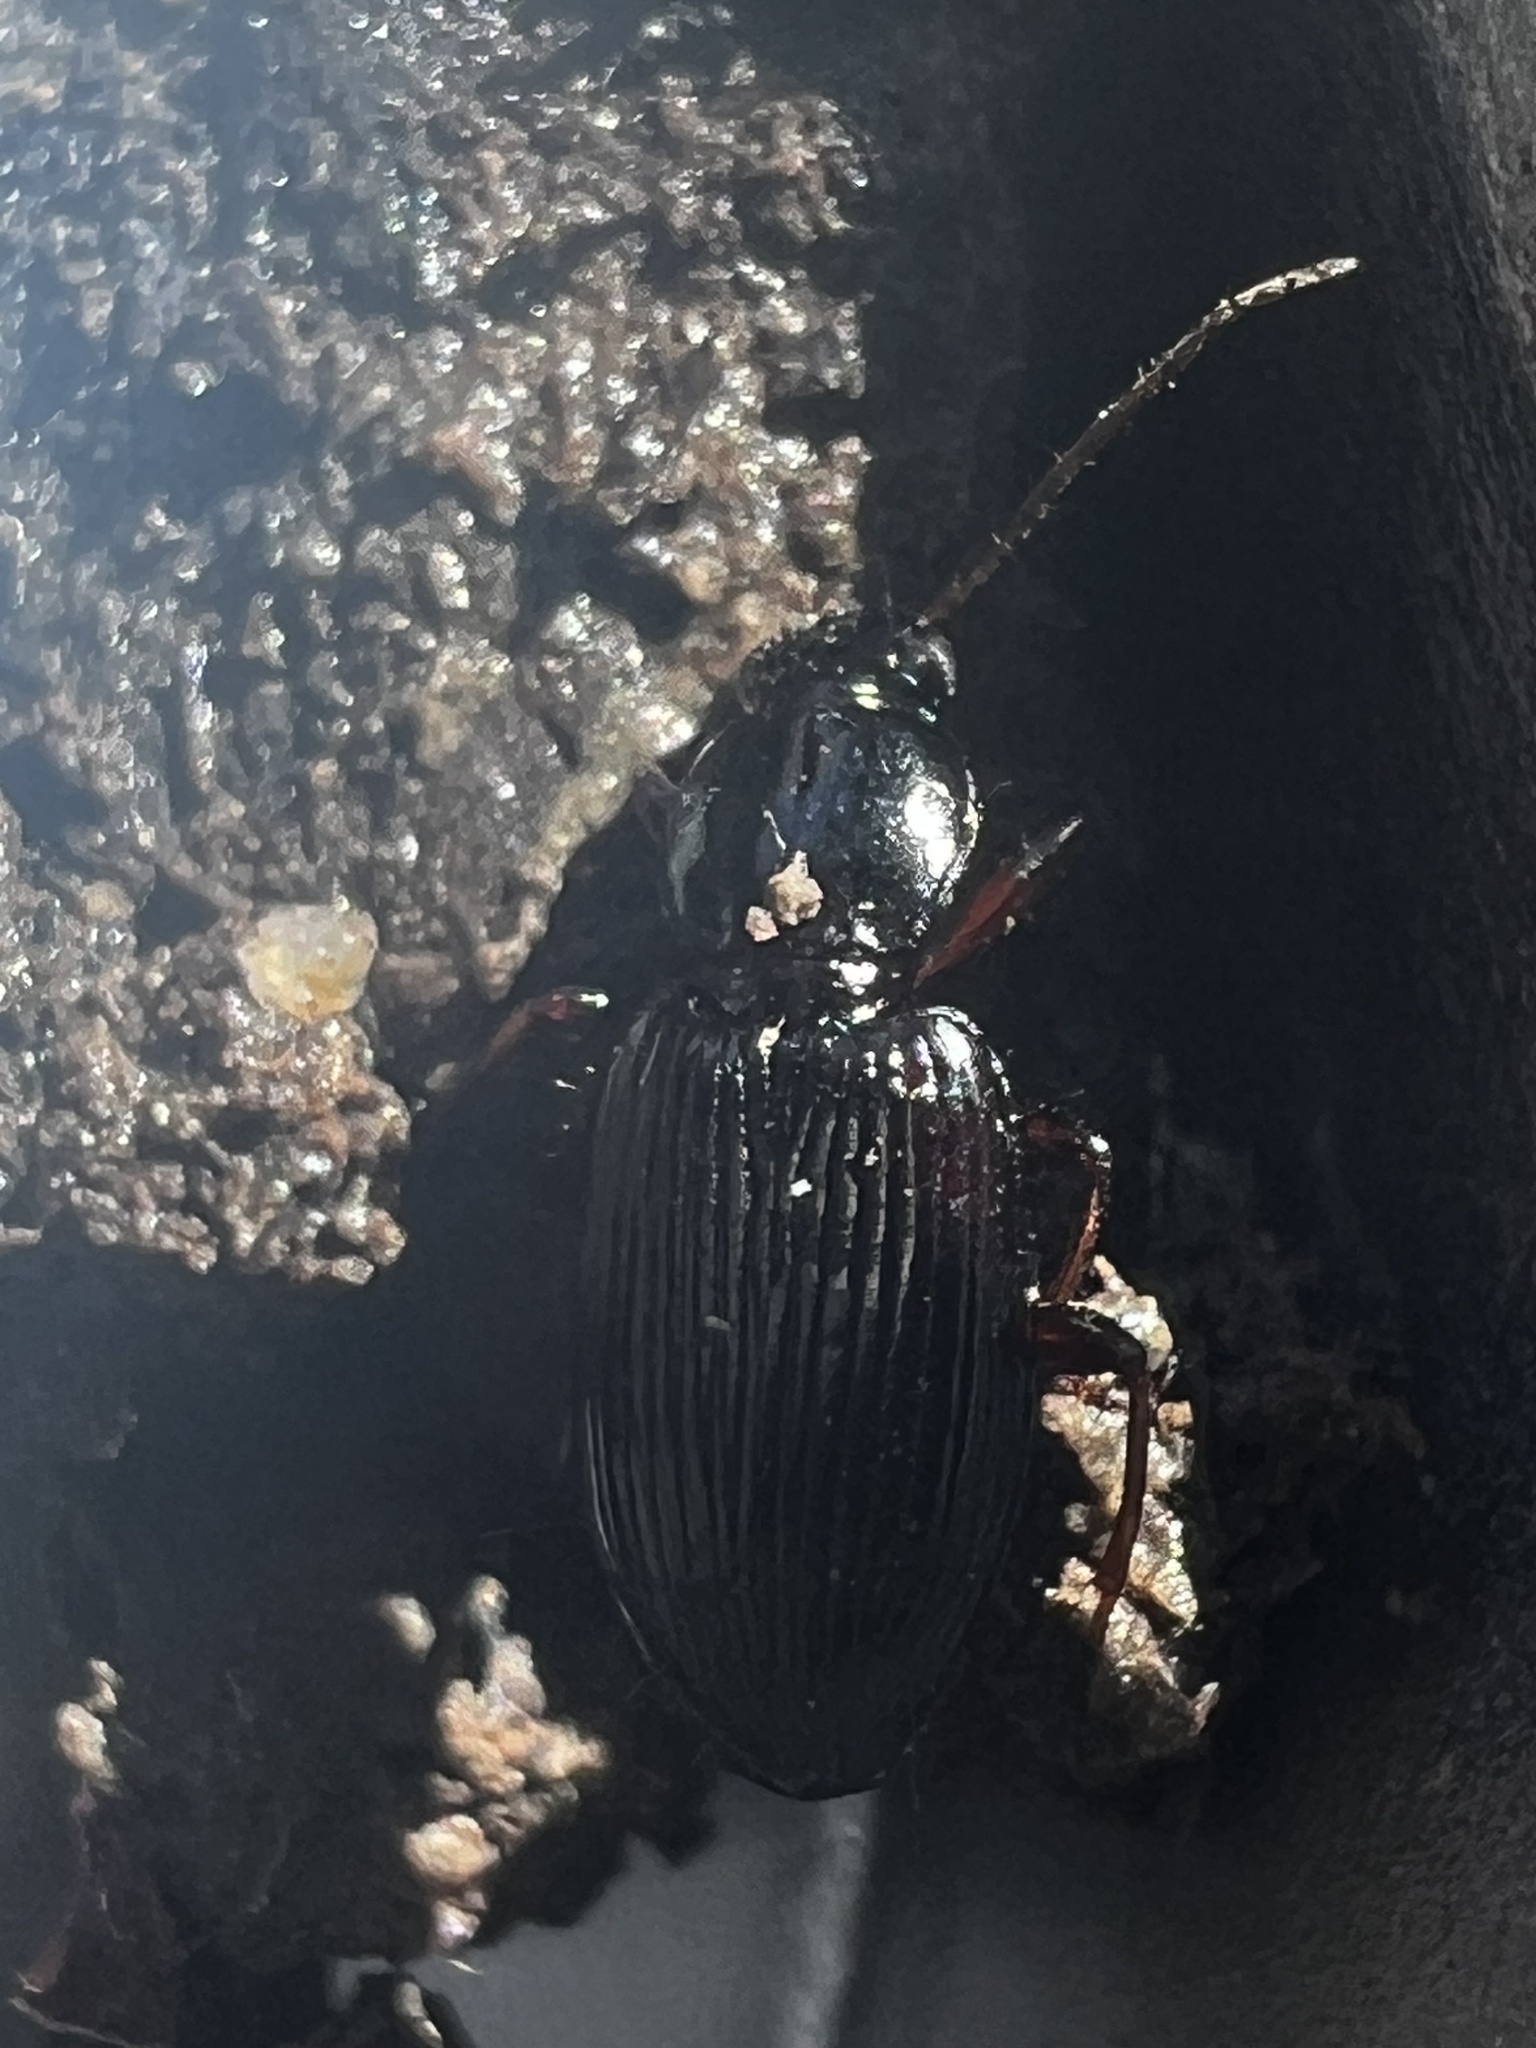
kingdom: Animalia
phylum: Arthropoda
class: Insecta
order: Coleoptera
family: Carabidae
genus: Agonum
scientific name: Agonum punctiforme
